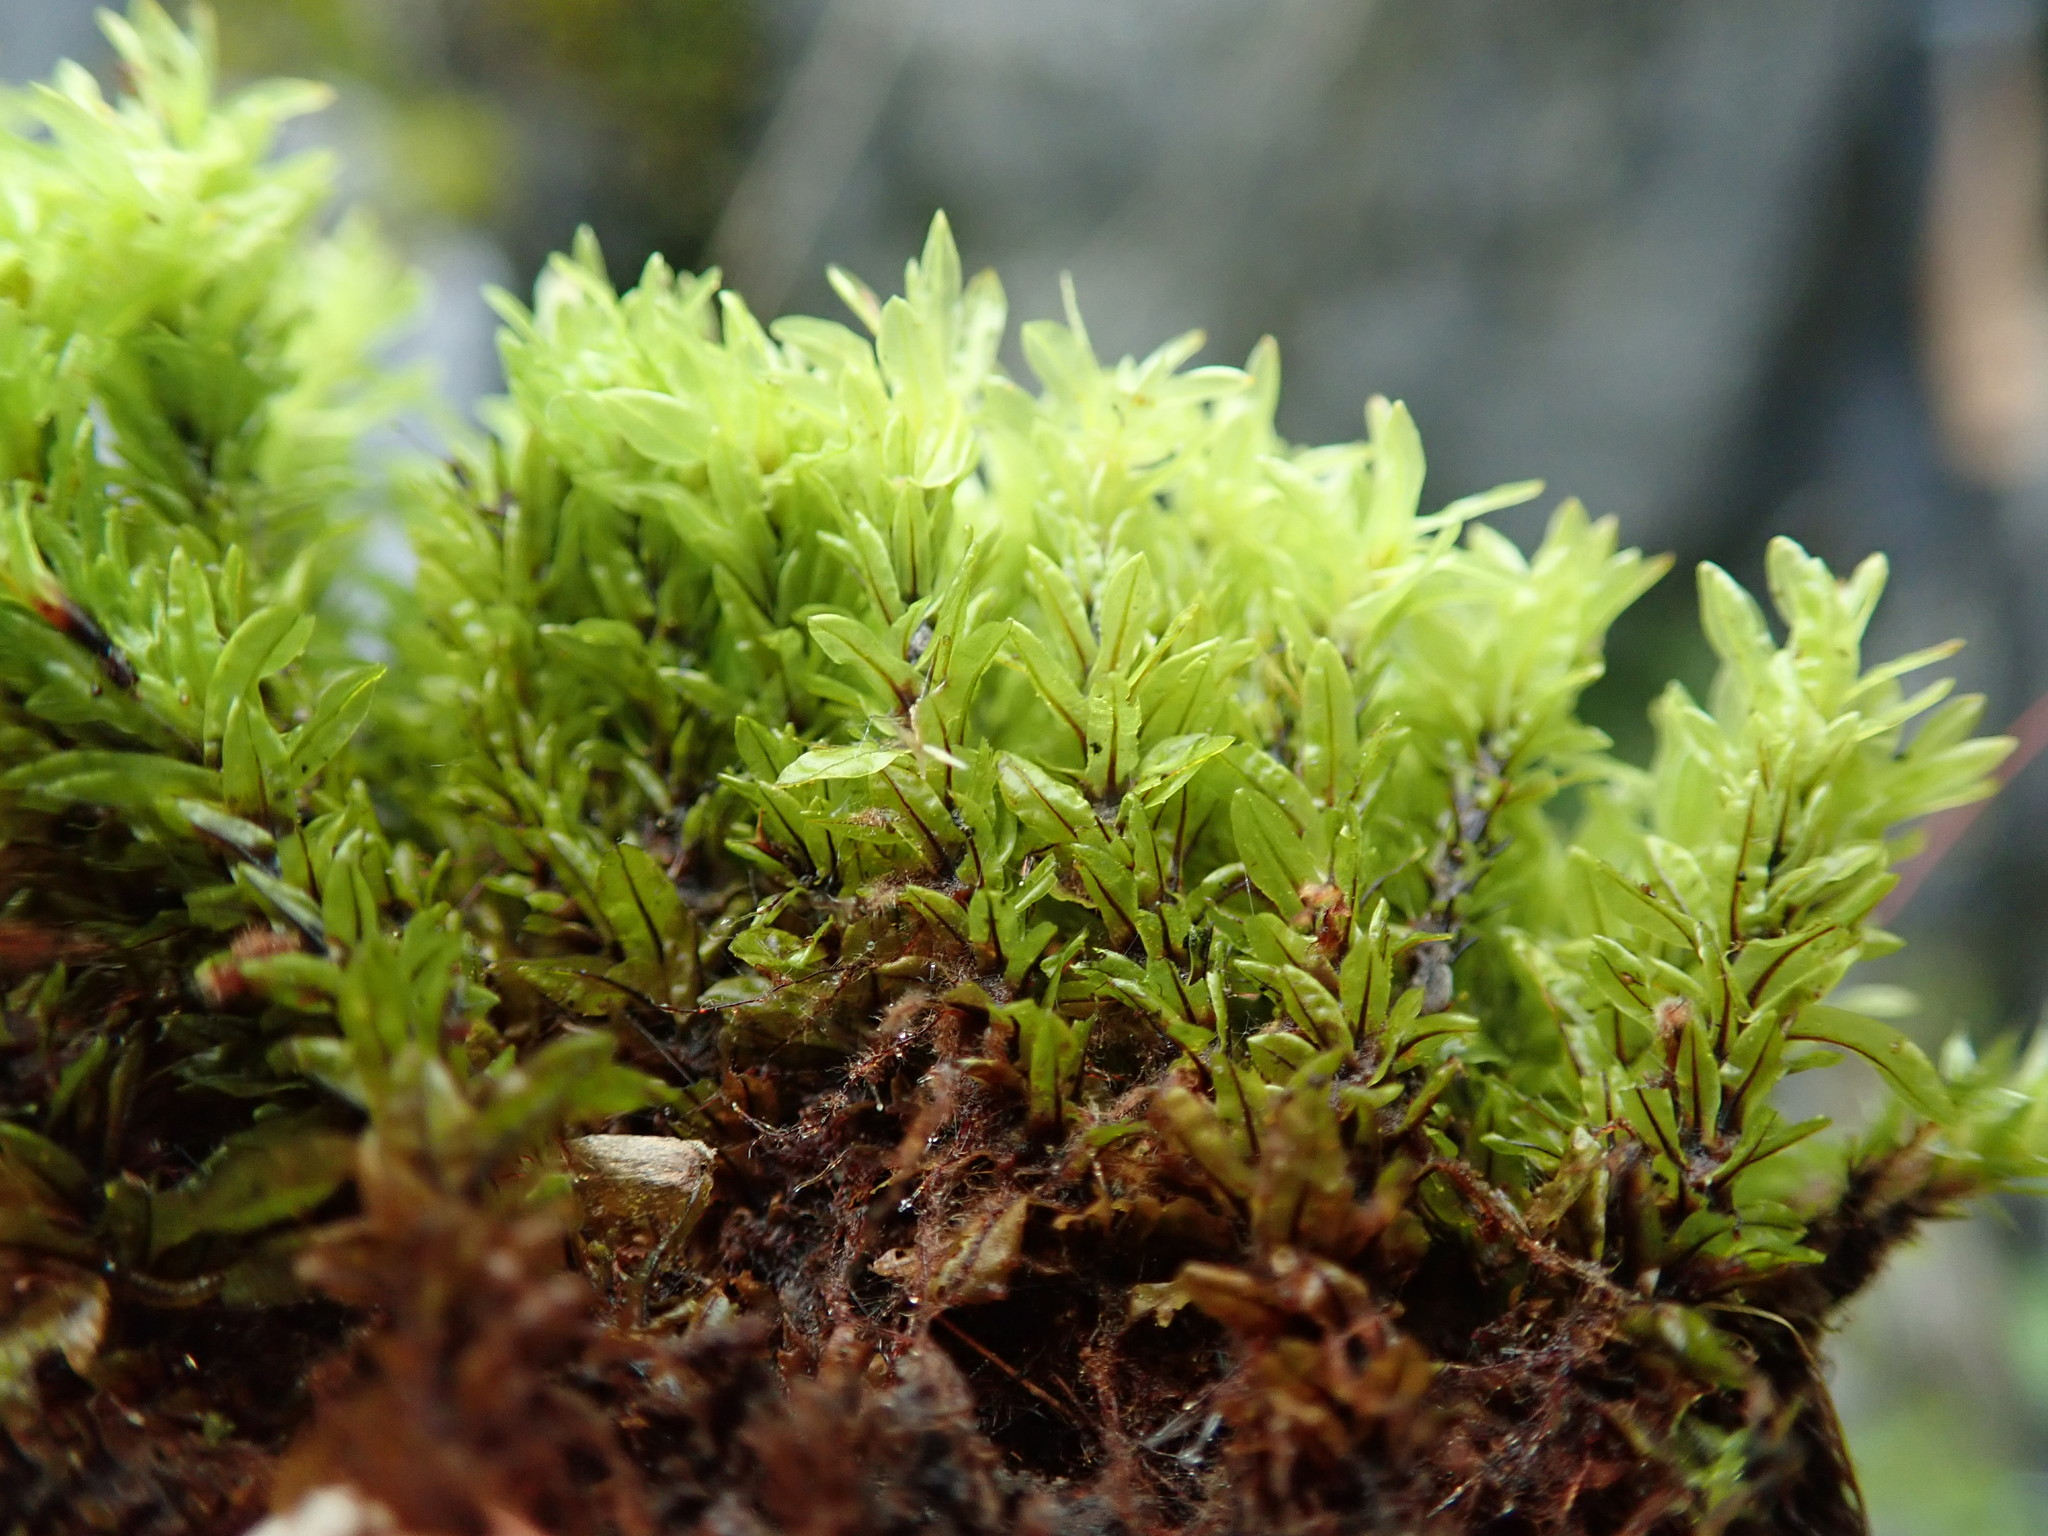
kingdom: Plantae
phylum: Bryophyta
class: Bryopsida
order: Encalyptales
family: Encalyptaceae
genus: Encalypta
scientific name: Encalypta procera
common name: Spiral extinguisher moss
